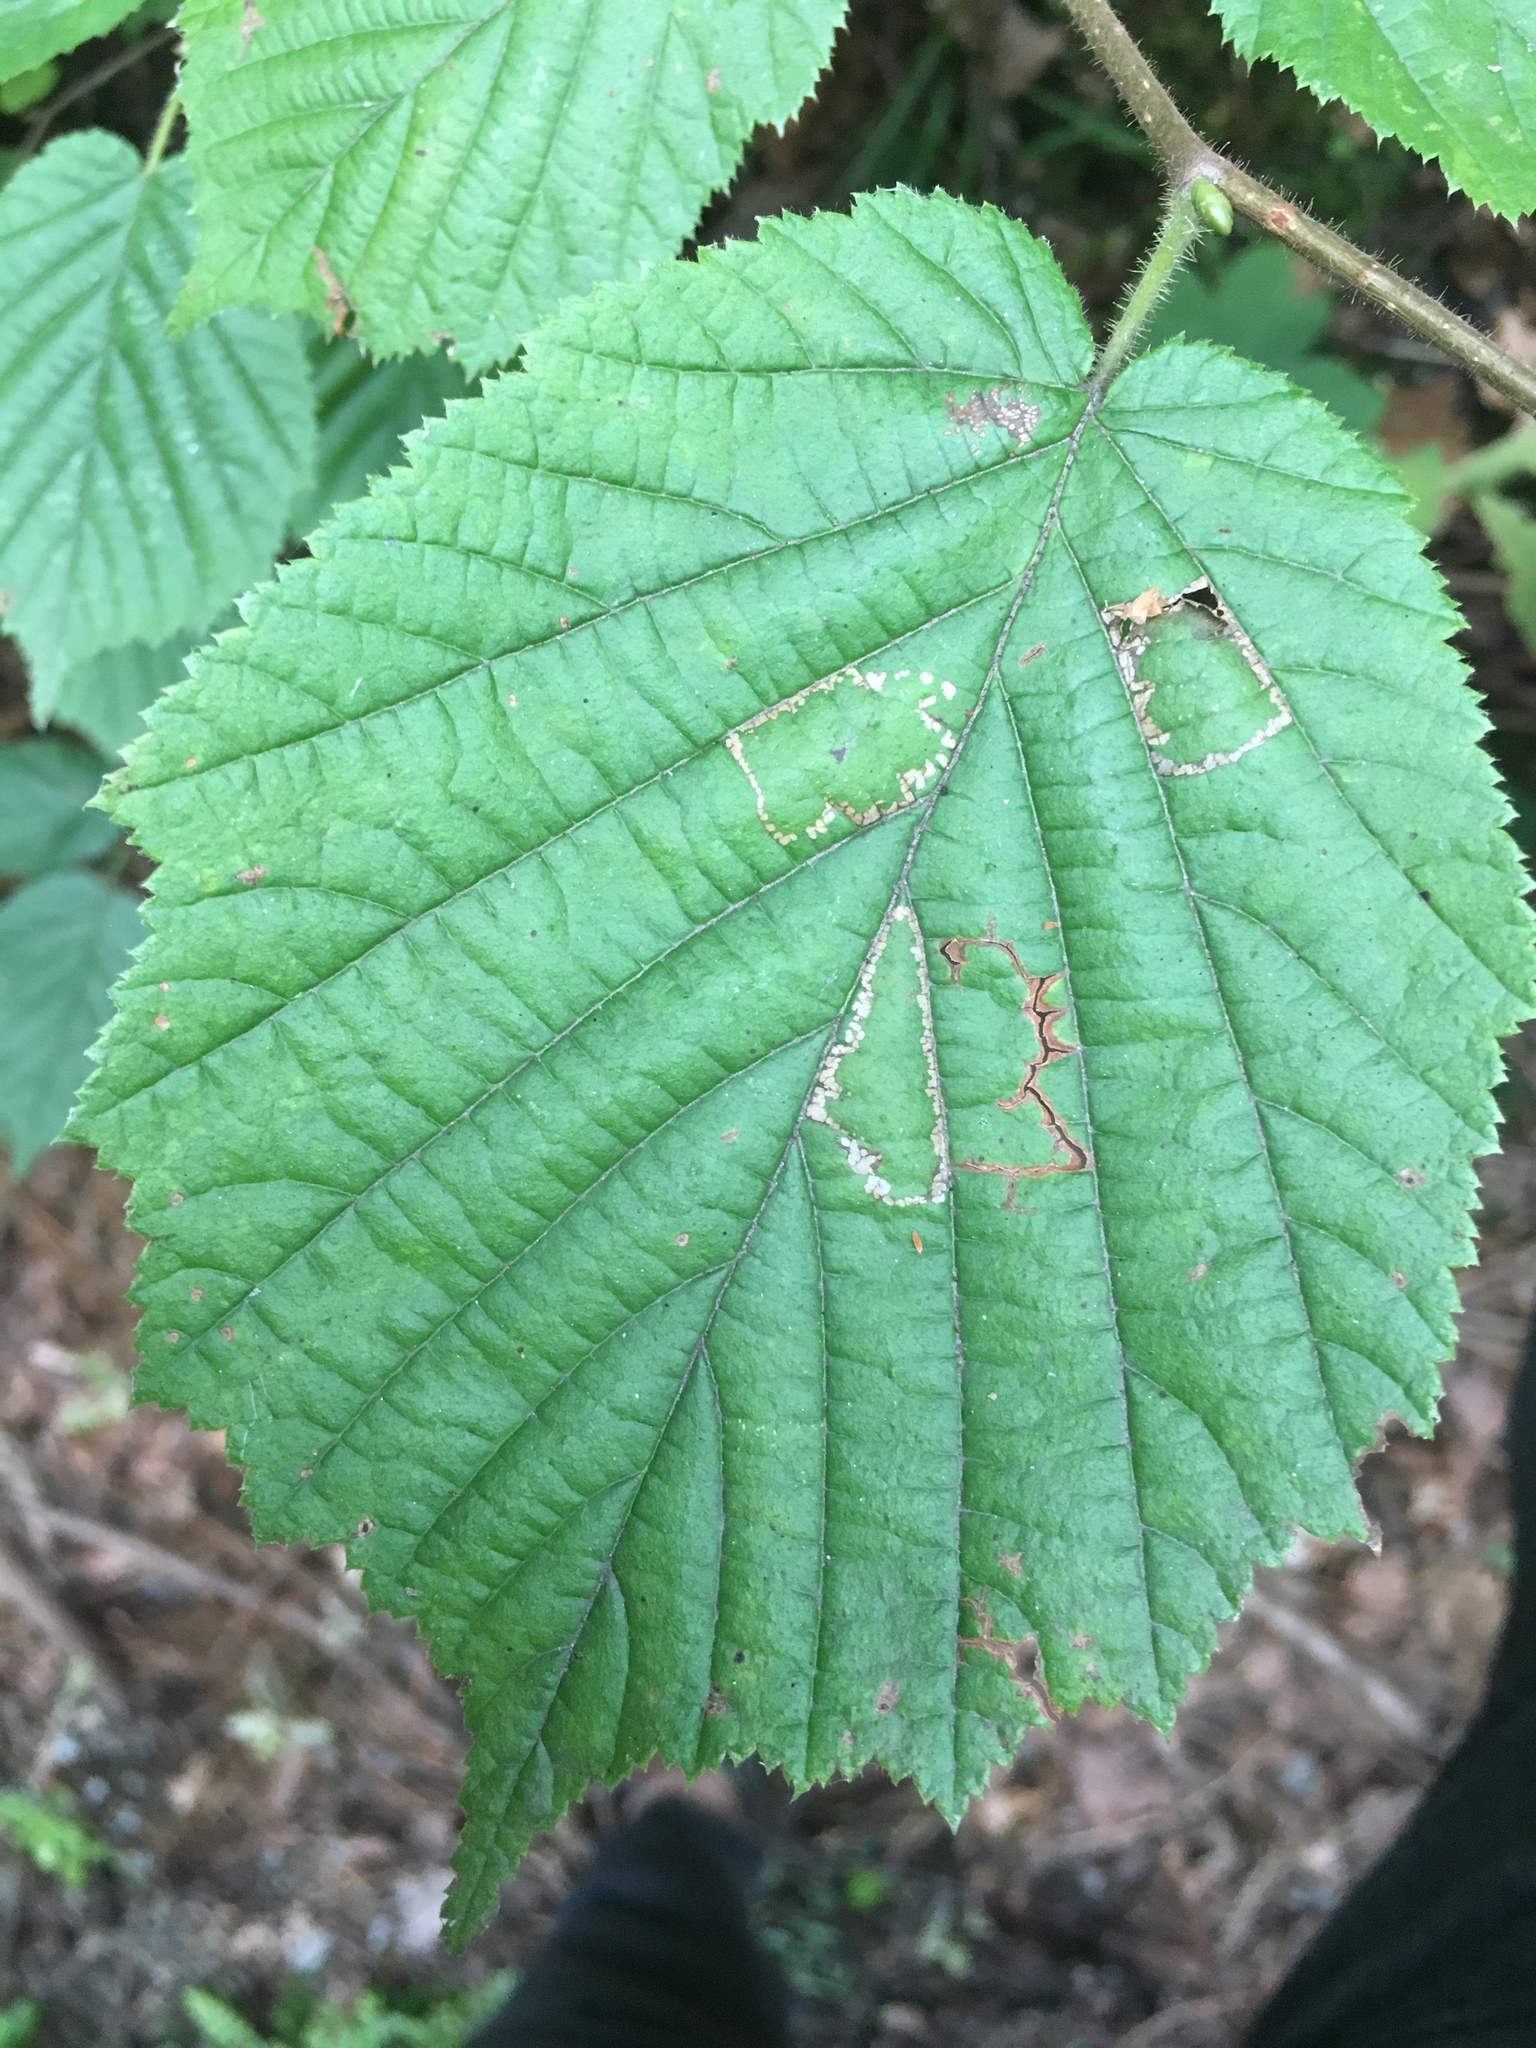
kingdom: Plantae
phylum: Tracheophyta
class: Magnoliopsida
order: Fagales
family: Betulaceae
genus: Corylus
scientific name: Corylus avellana
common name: European hazel
